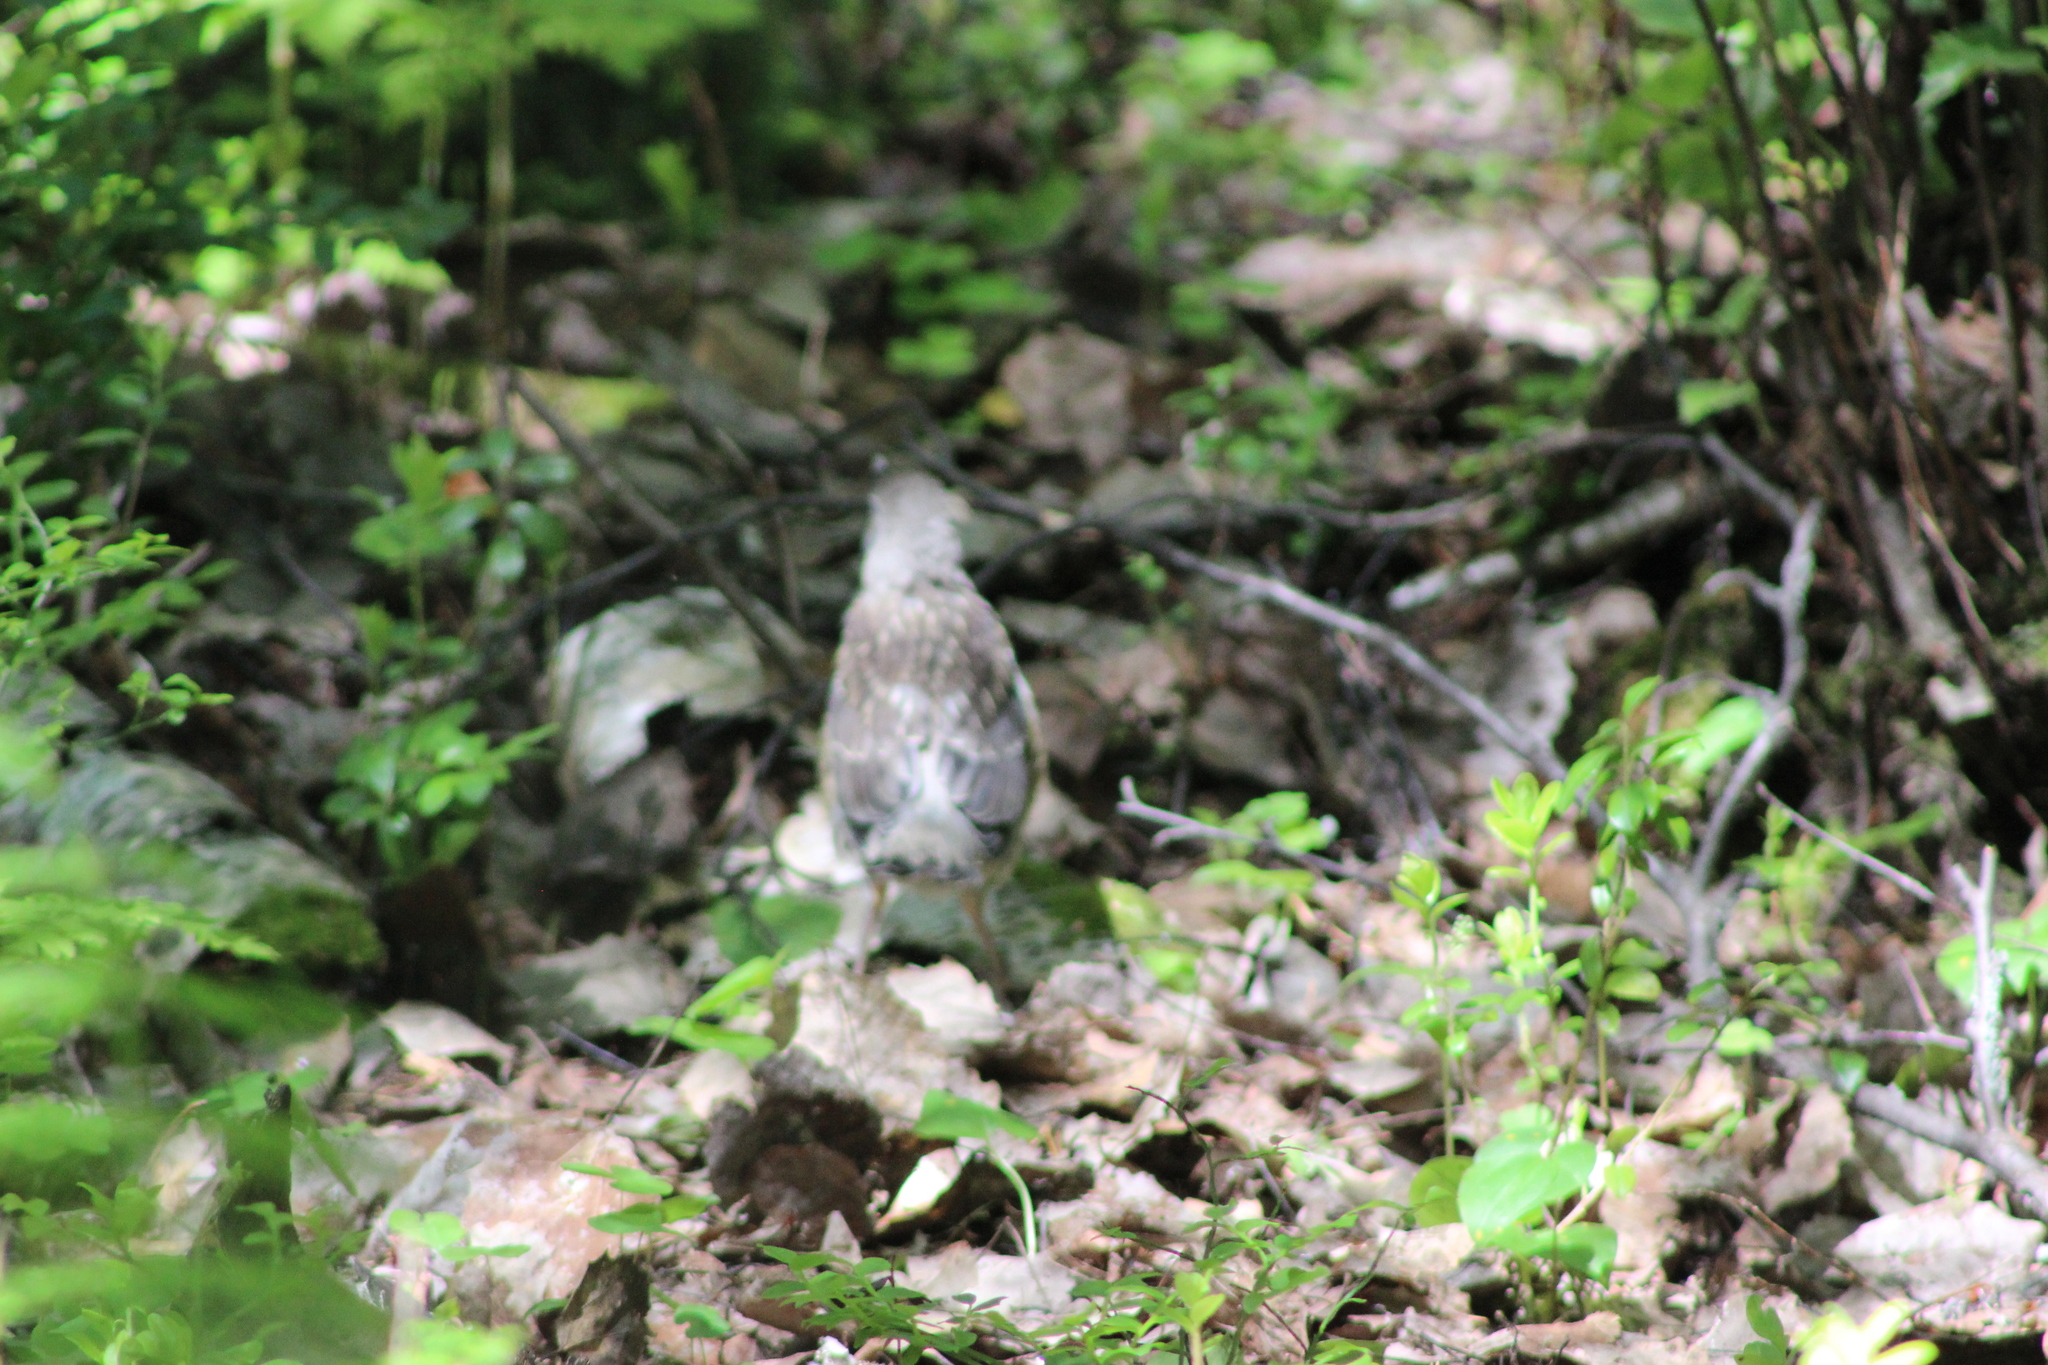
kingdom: Animalia
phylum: Chordata
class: Aves
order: Passeriformes
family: Turdidae
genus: Turdus
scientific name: Turdus pilaris
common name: Fieldfare
